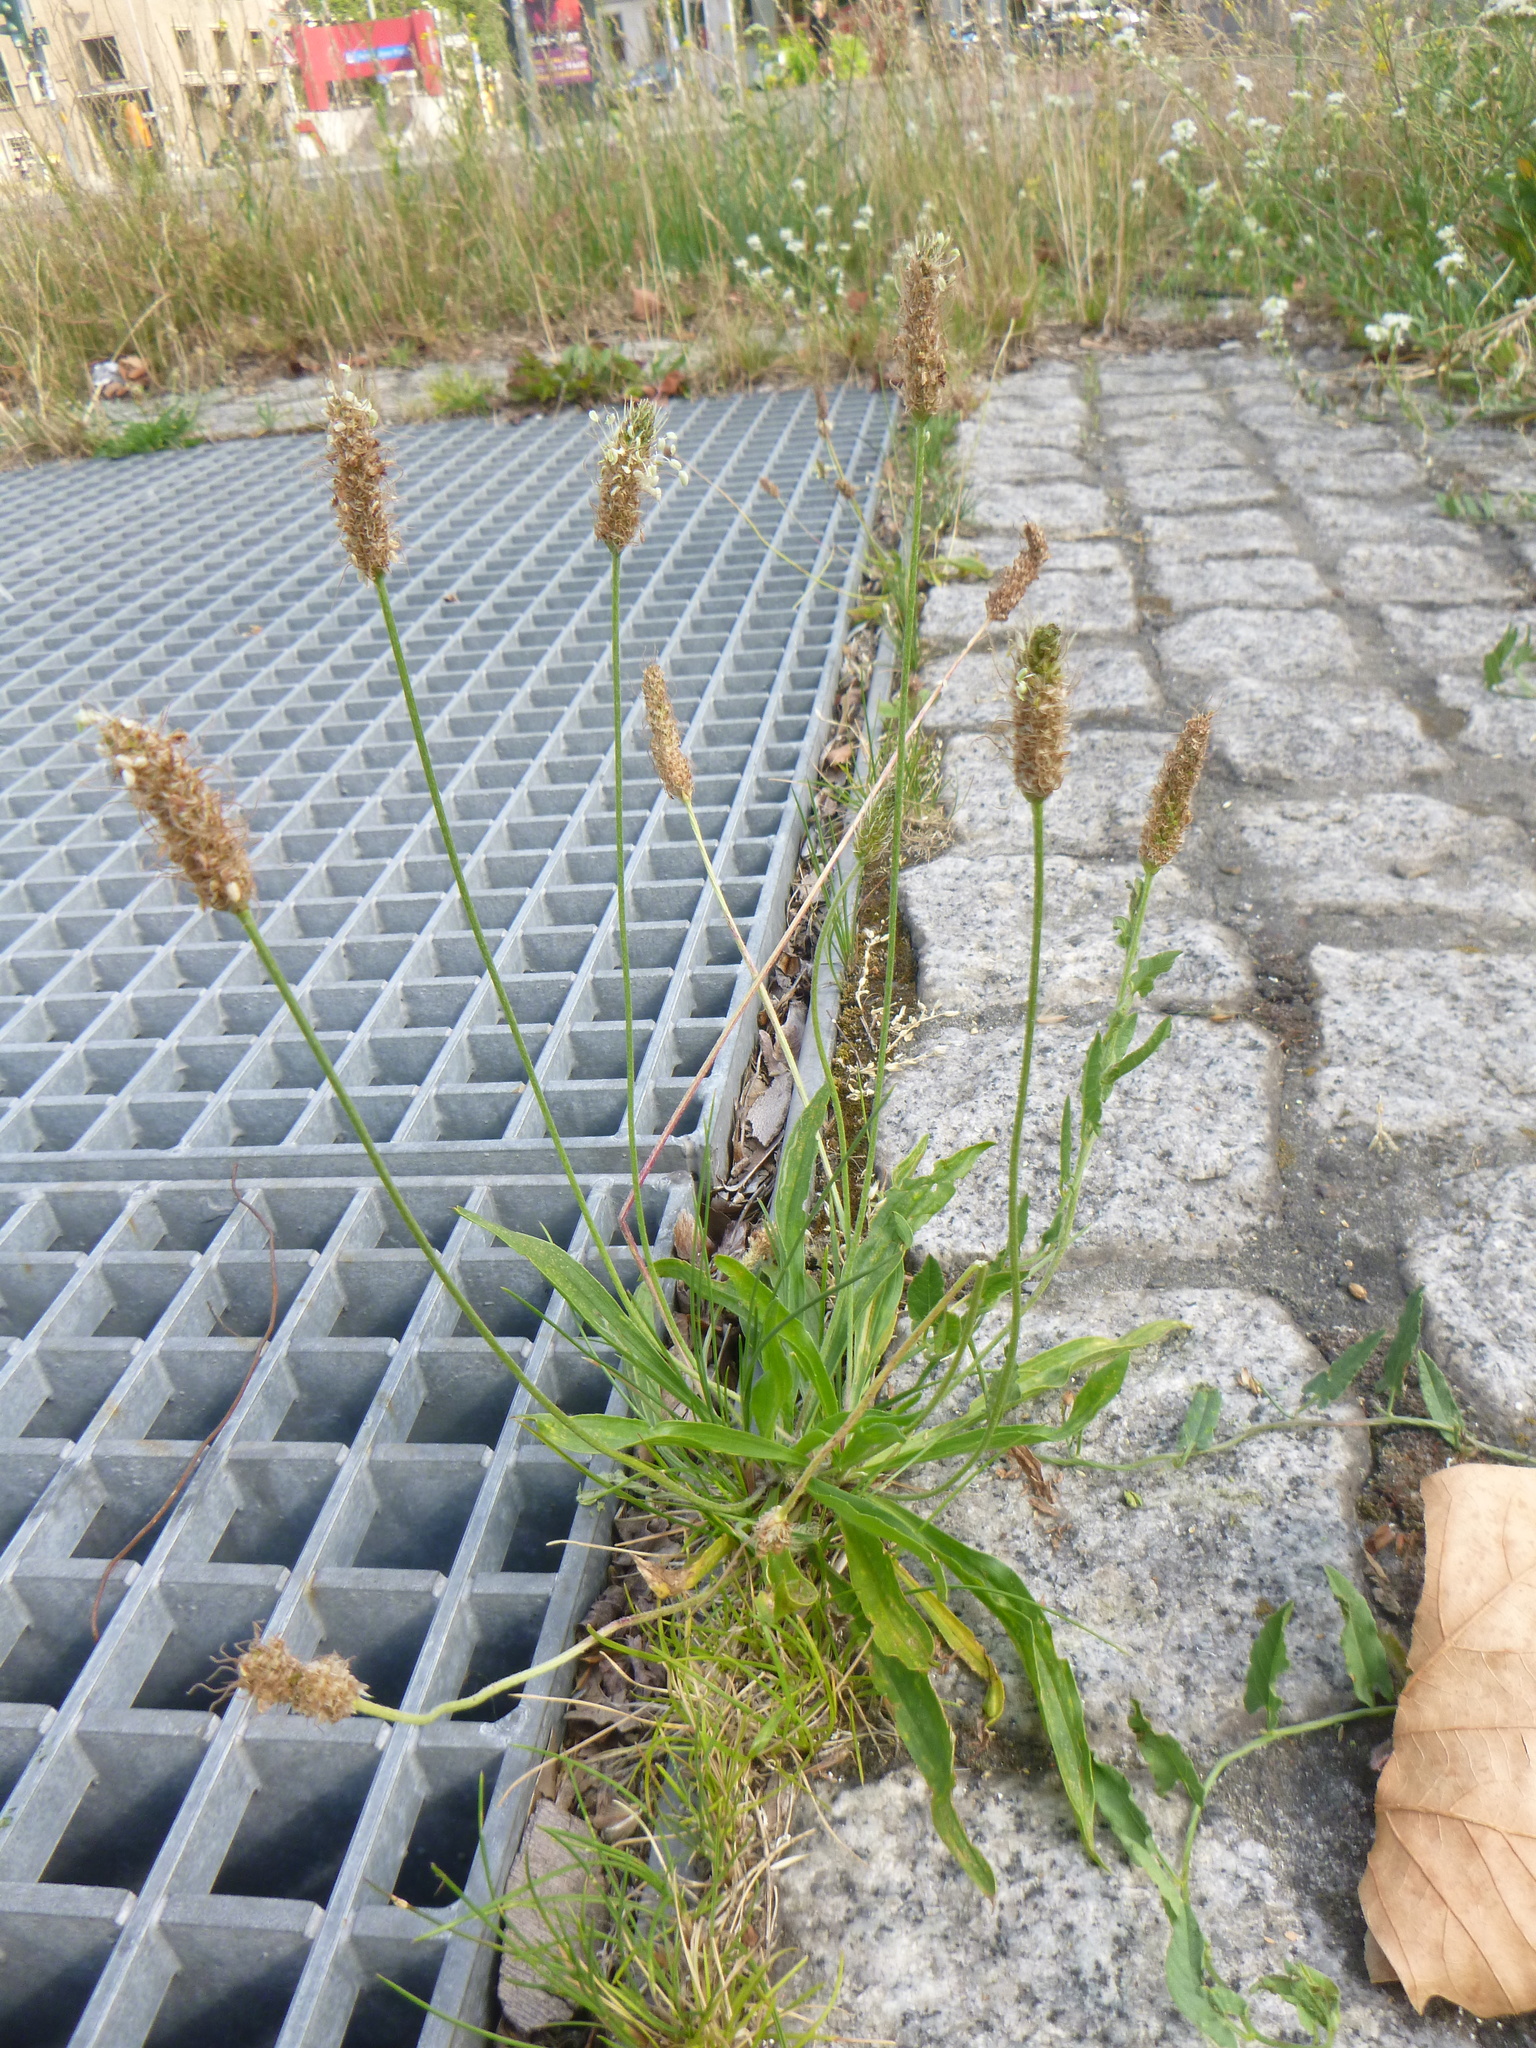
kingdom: Plantae
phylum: Tracheophyta
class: Magnoliopsida
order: Lamiales
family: Plantaginaceae
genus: Plantago
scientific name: Plantago lanceolata
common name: Ribwort plantain
